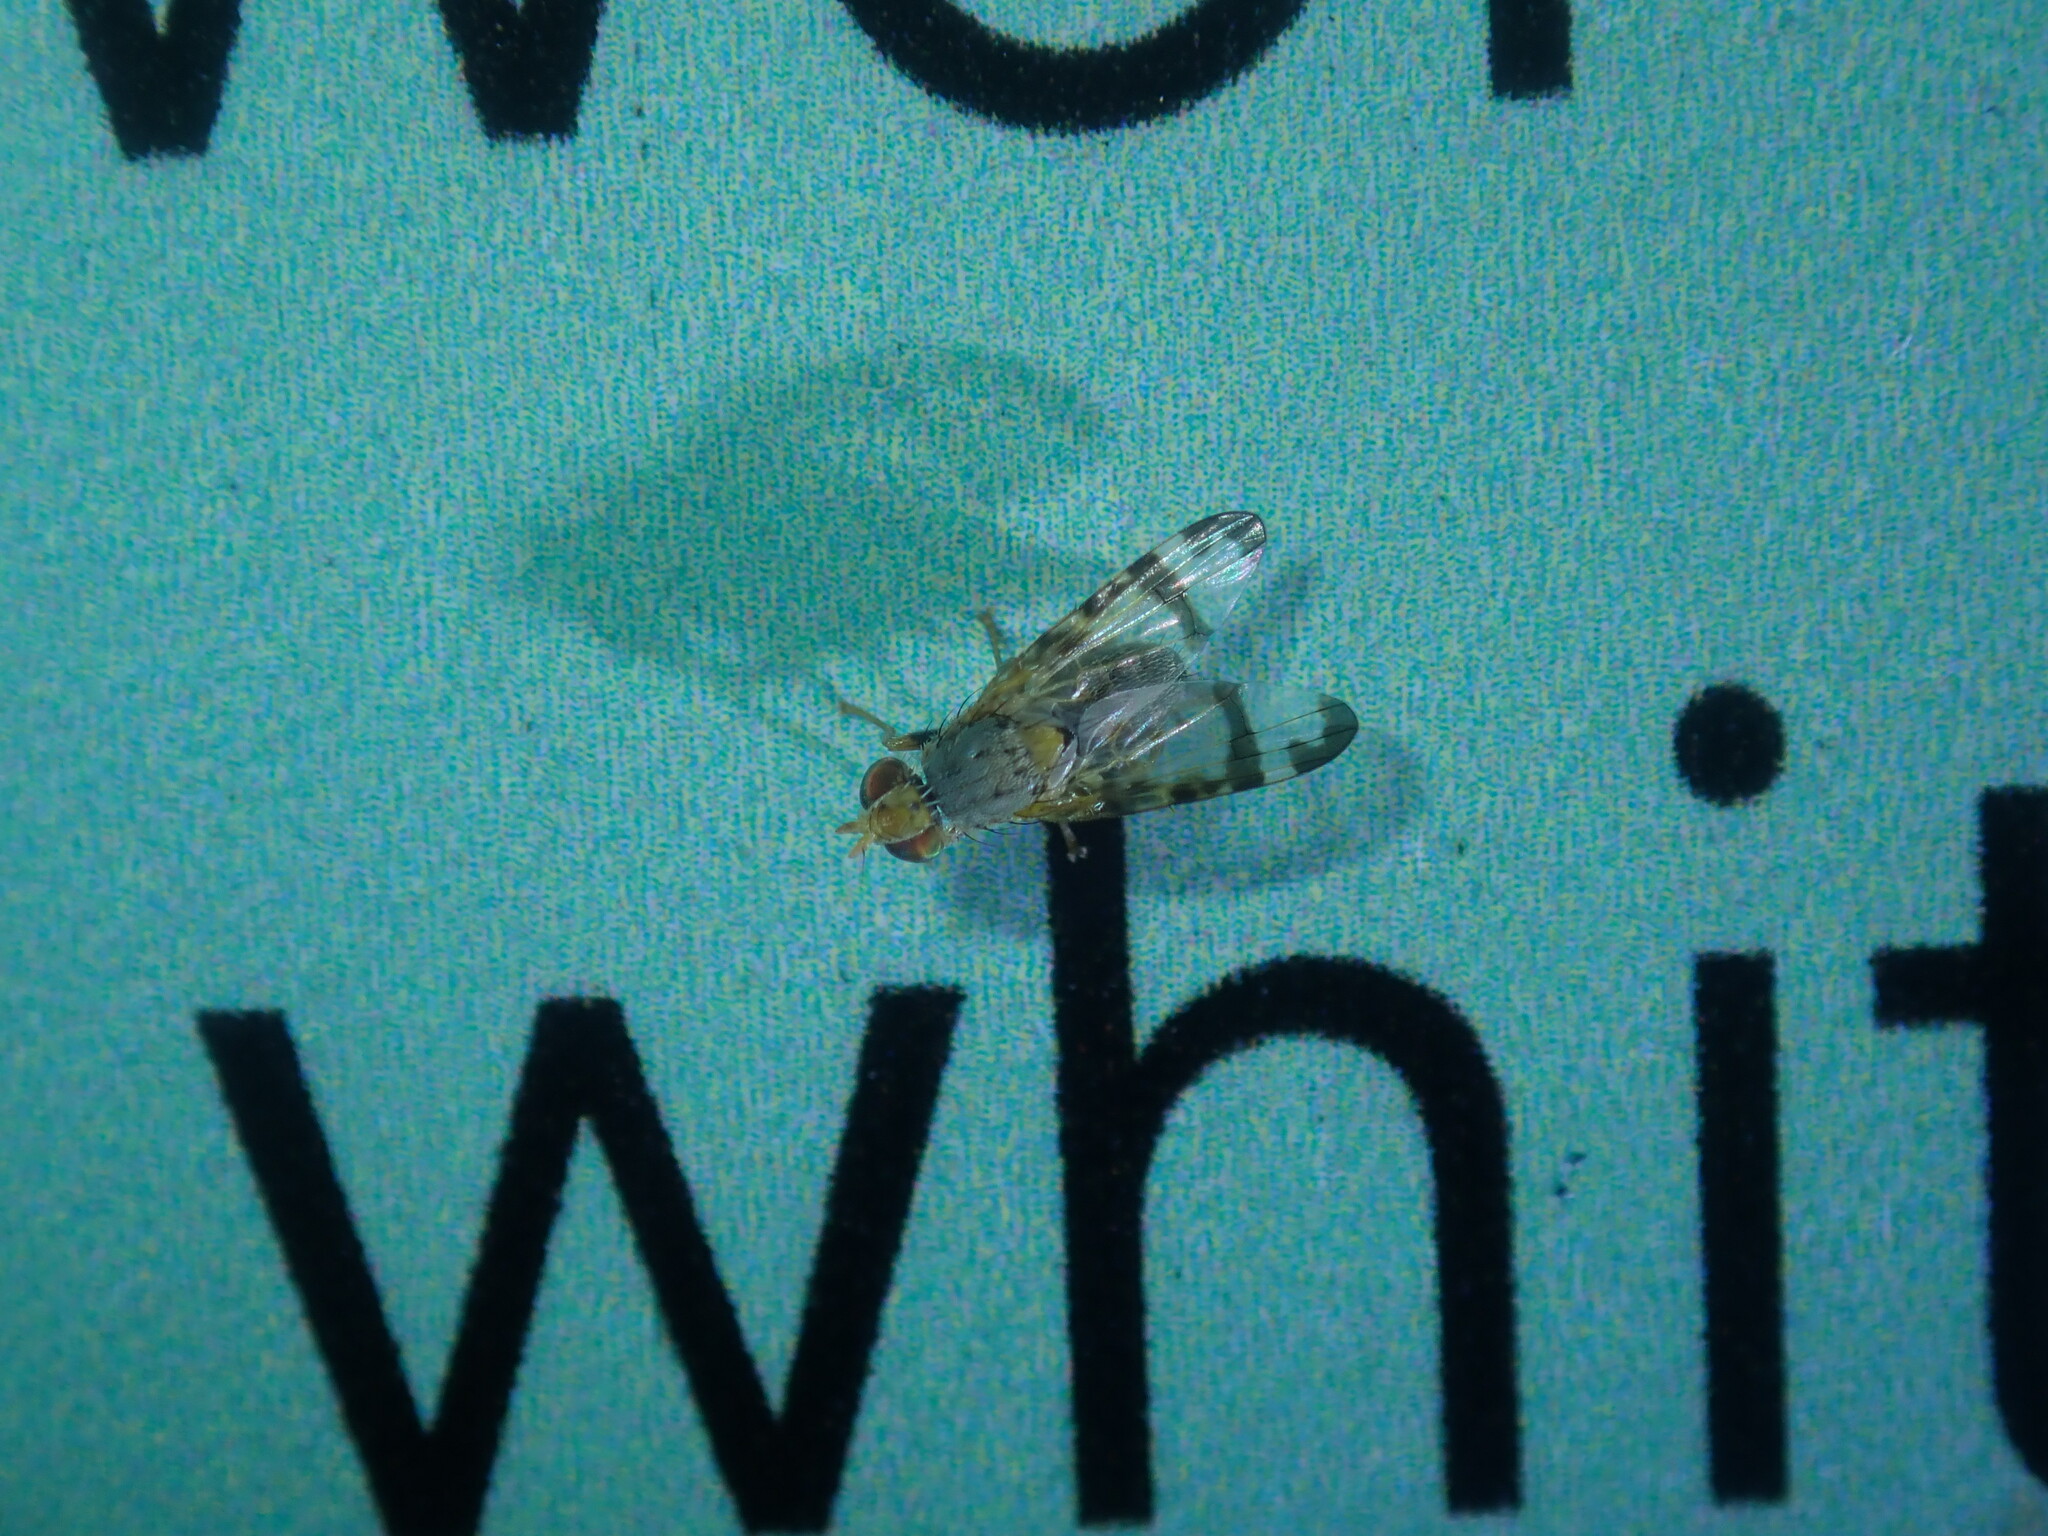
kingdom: Animalia
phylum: Arthropoda
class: Insecta
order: Diptera
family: Tephritidae
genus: Sphenella
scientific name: Sphenella ruficeps
